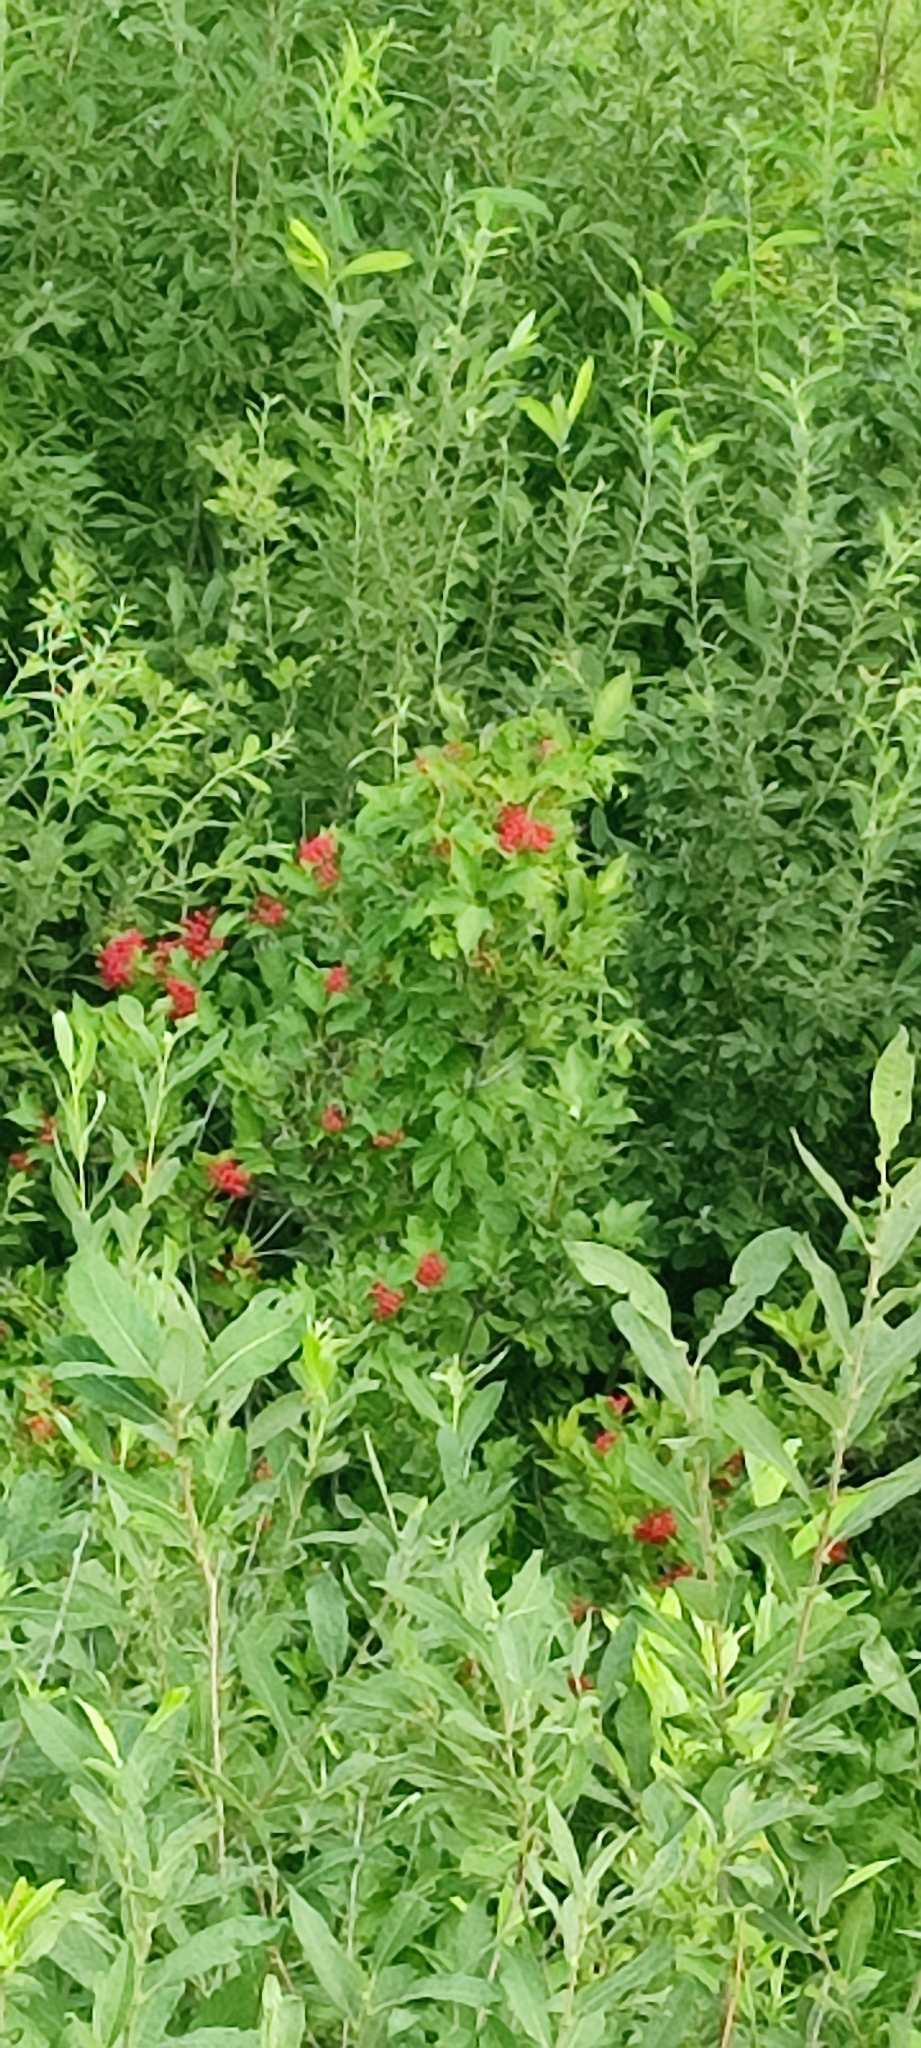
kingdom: Plantae
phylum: Tracheophyta
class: Magnoliopsida
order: Dipsacales
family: Viburnaceae
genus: Viburnum
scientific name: Viburnum opulus
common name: Guelder-rose
